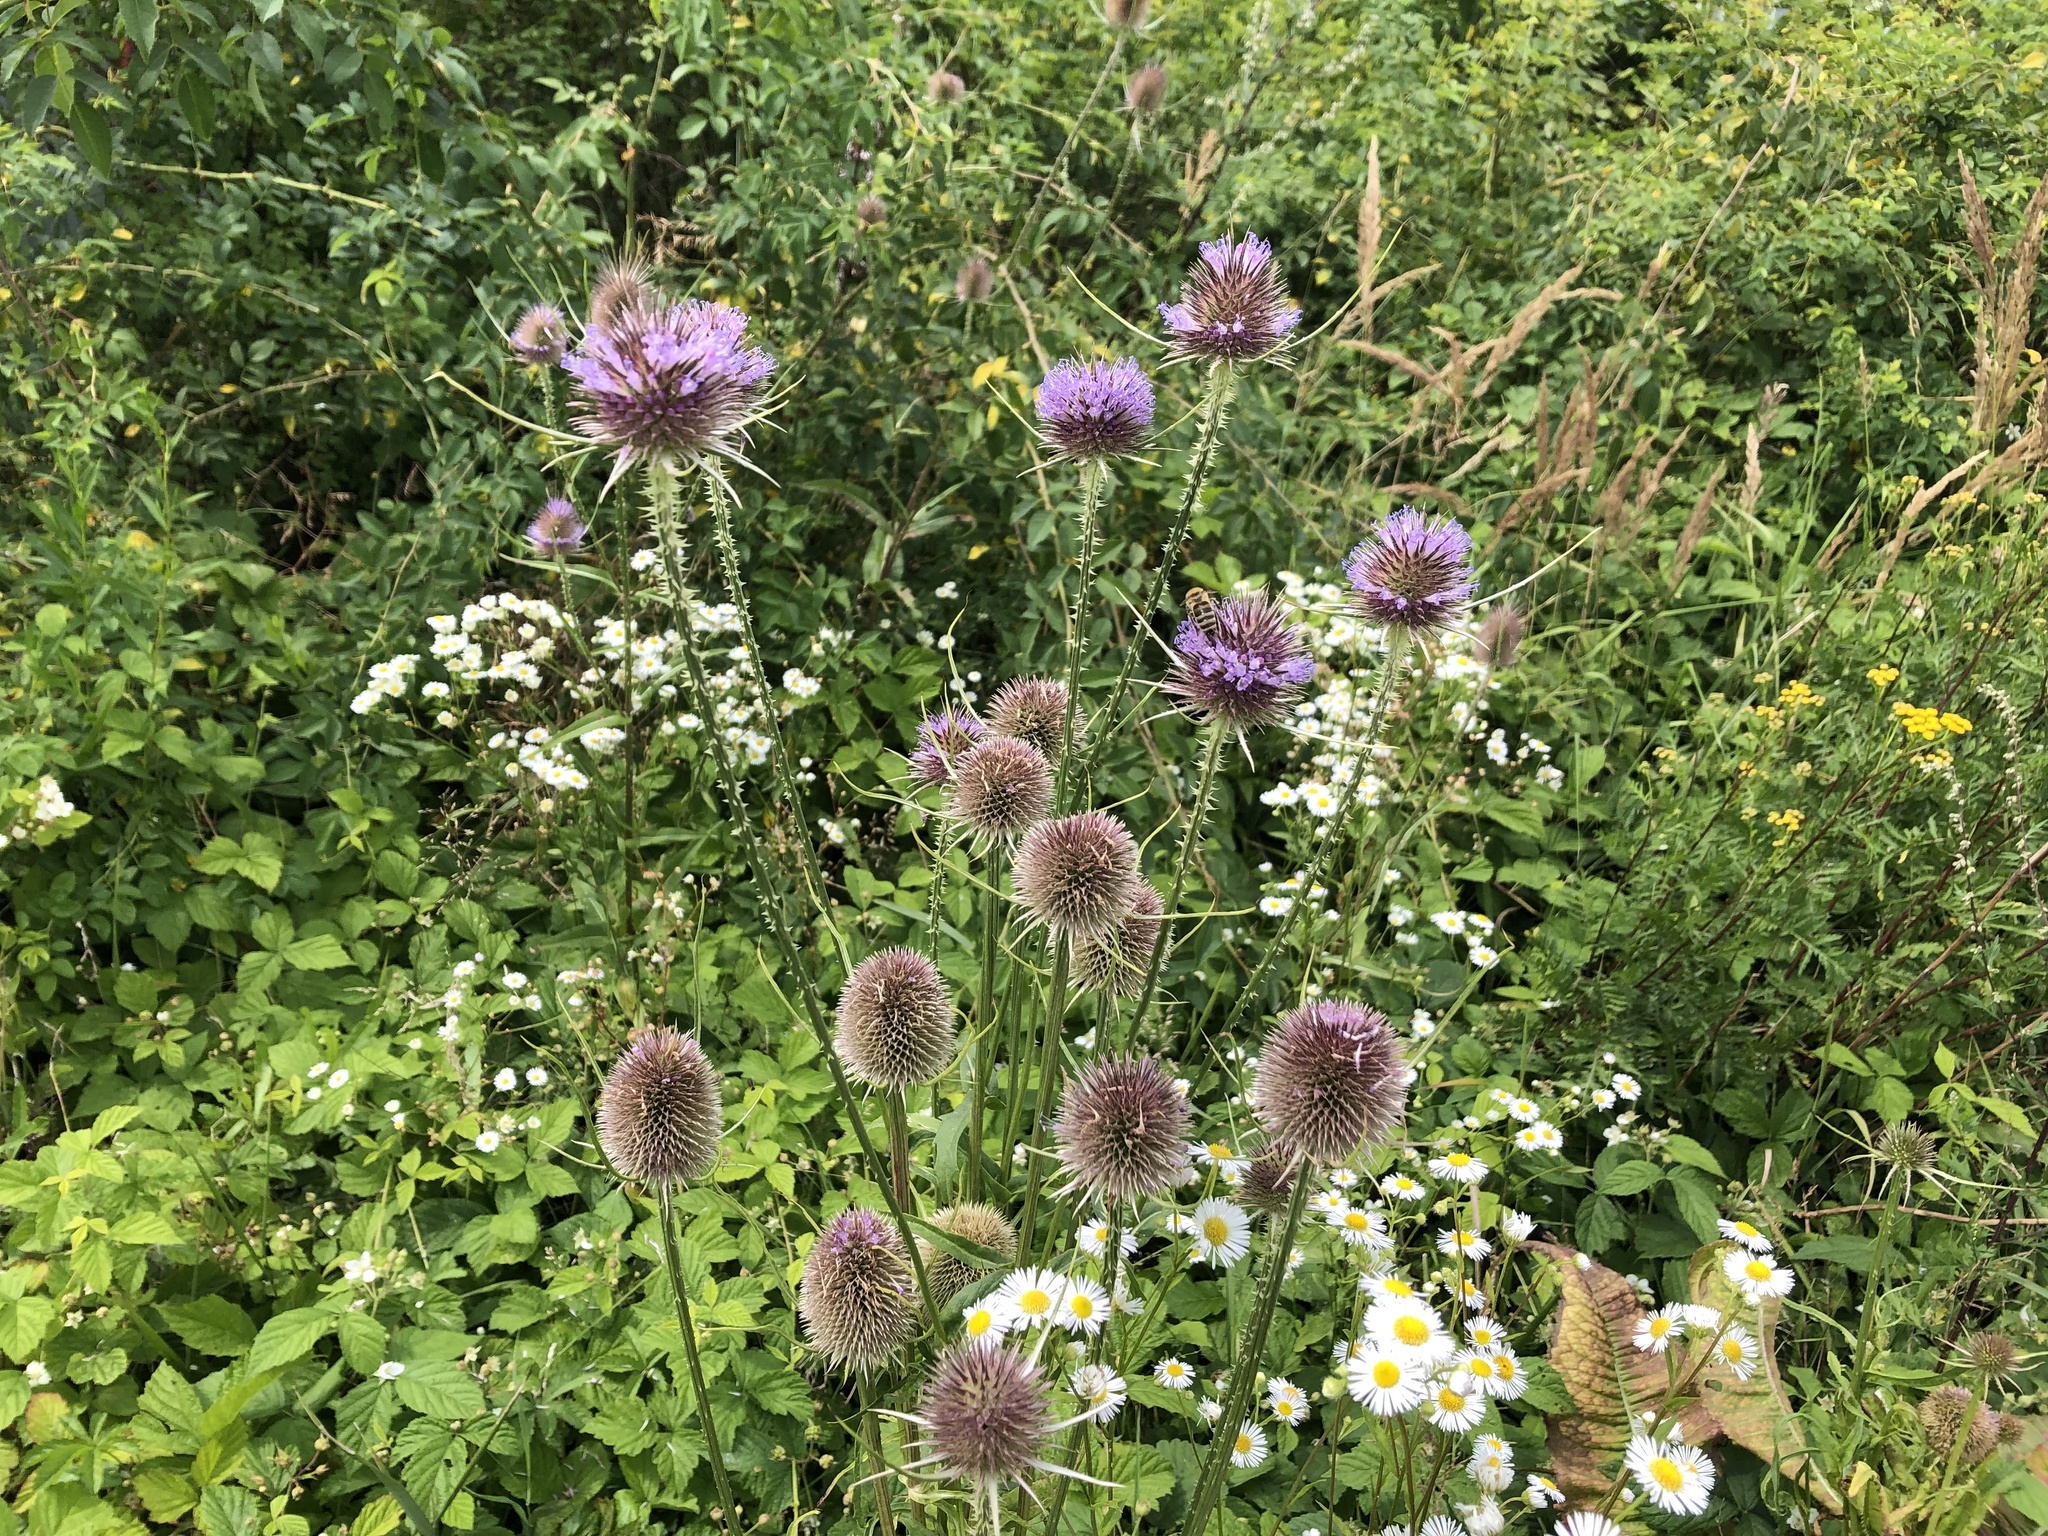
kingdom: Plantae
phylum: Tracheophyta
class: Magnoliopsida
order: Dipsacales
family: Caprifoliaceae
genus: Dipsacus
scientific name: Dipsacus fullonum
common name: Teasel
